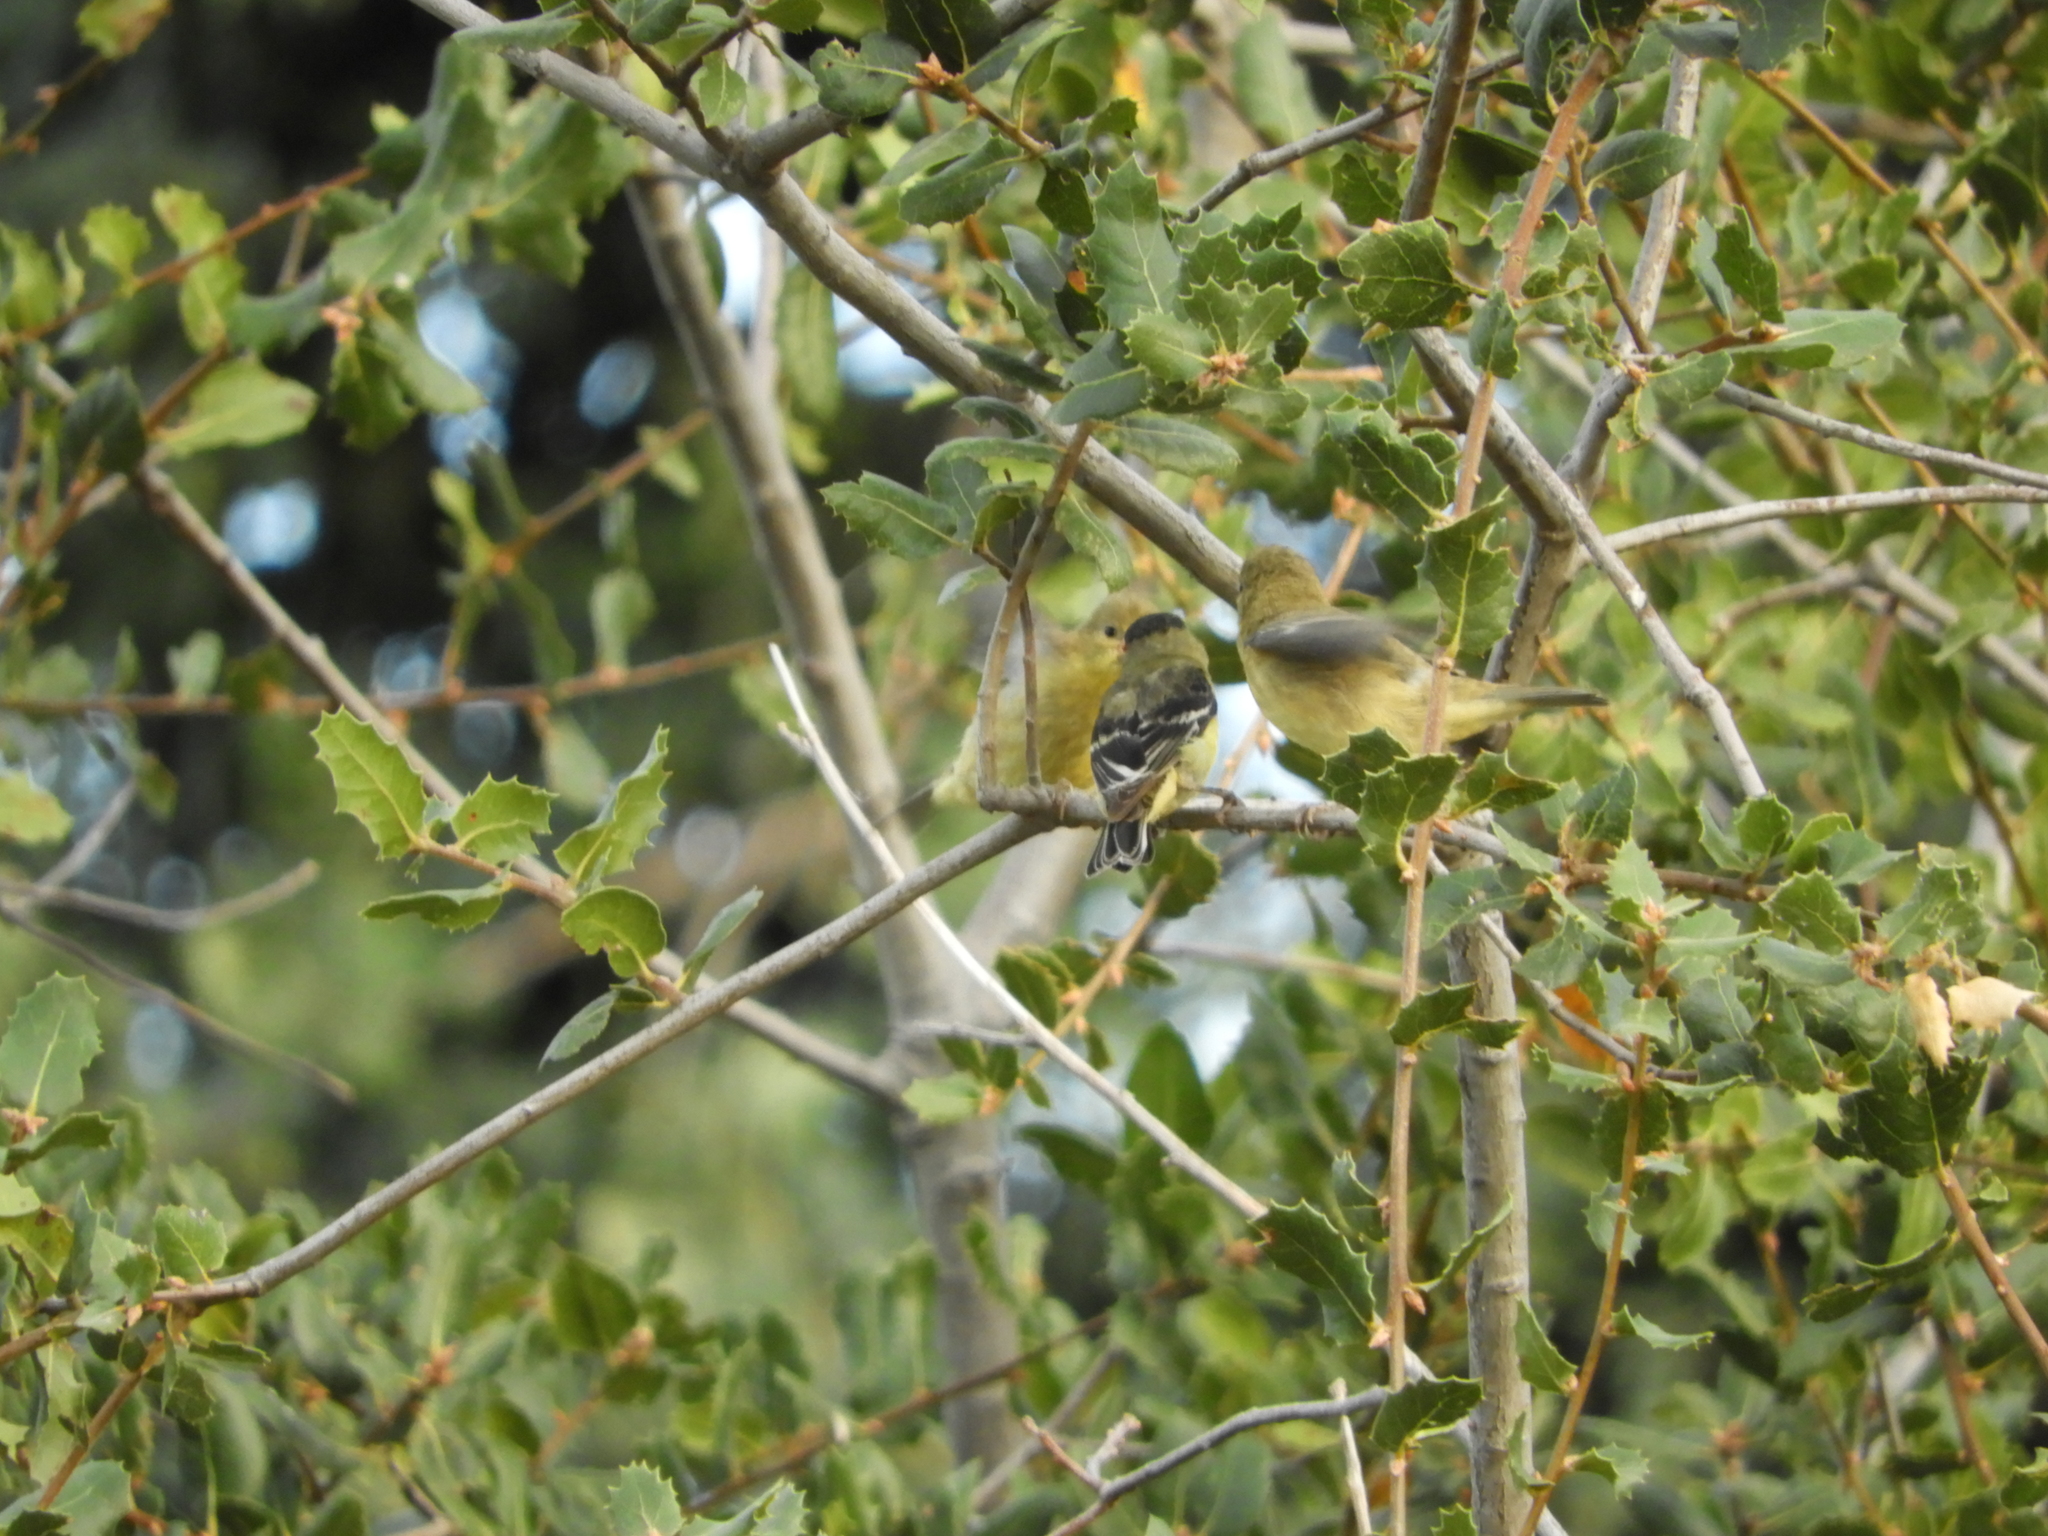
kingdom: Animalia
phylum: Chordata
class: Aves
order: Passeriformes
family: Fringillidae
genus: Spinus
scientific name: Spinus psaltria
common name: Lesser goldfinch
